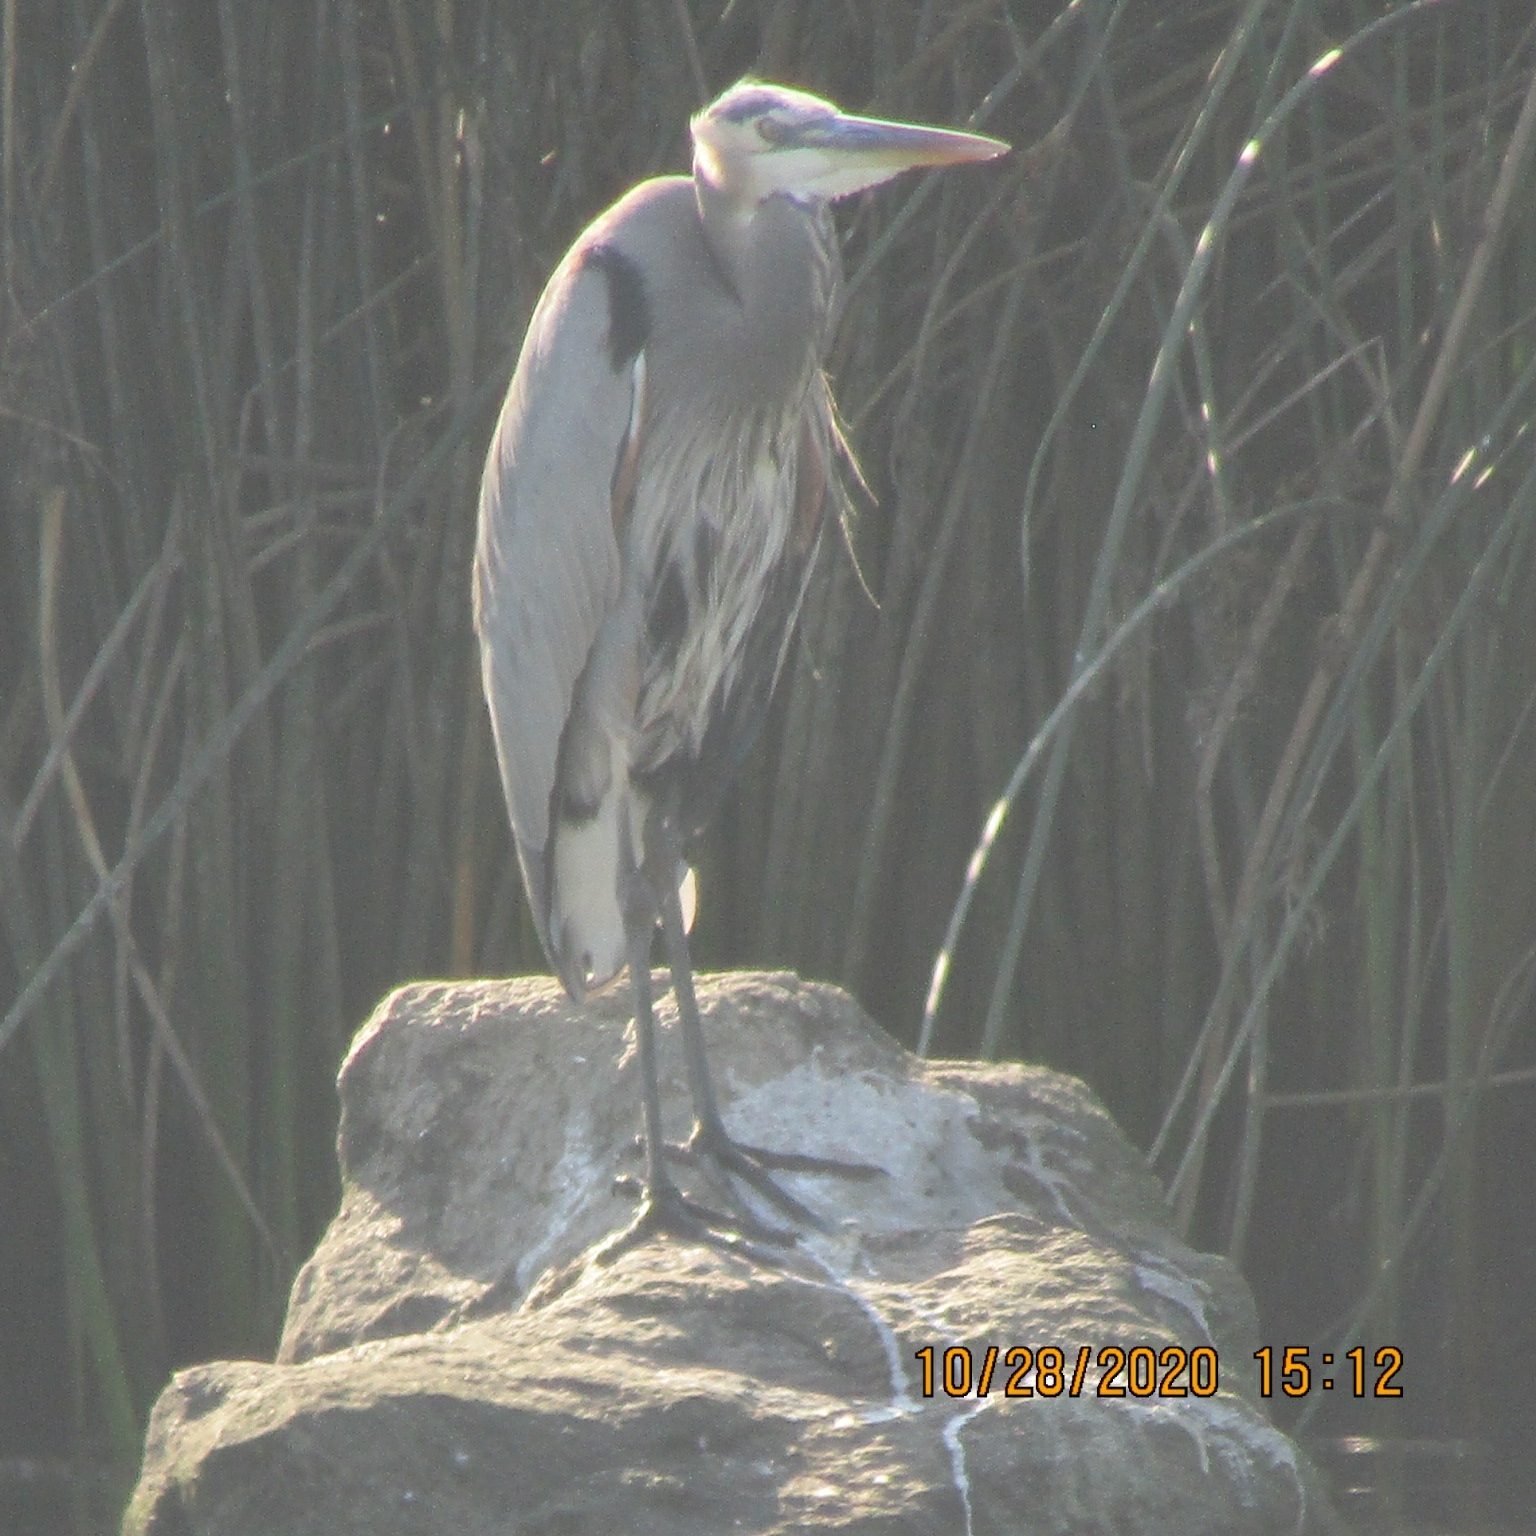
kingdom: Animalia
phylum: Chordata
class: Aves
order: Pelecaniformes
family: Ardeidae
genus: Ardea
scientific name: Ardea herodias
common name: Great blue heron
